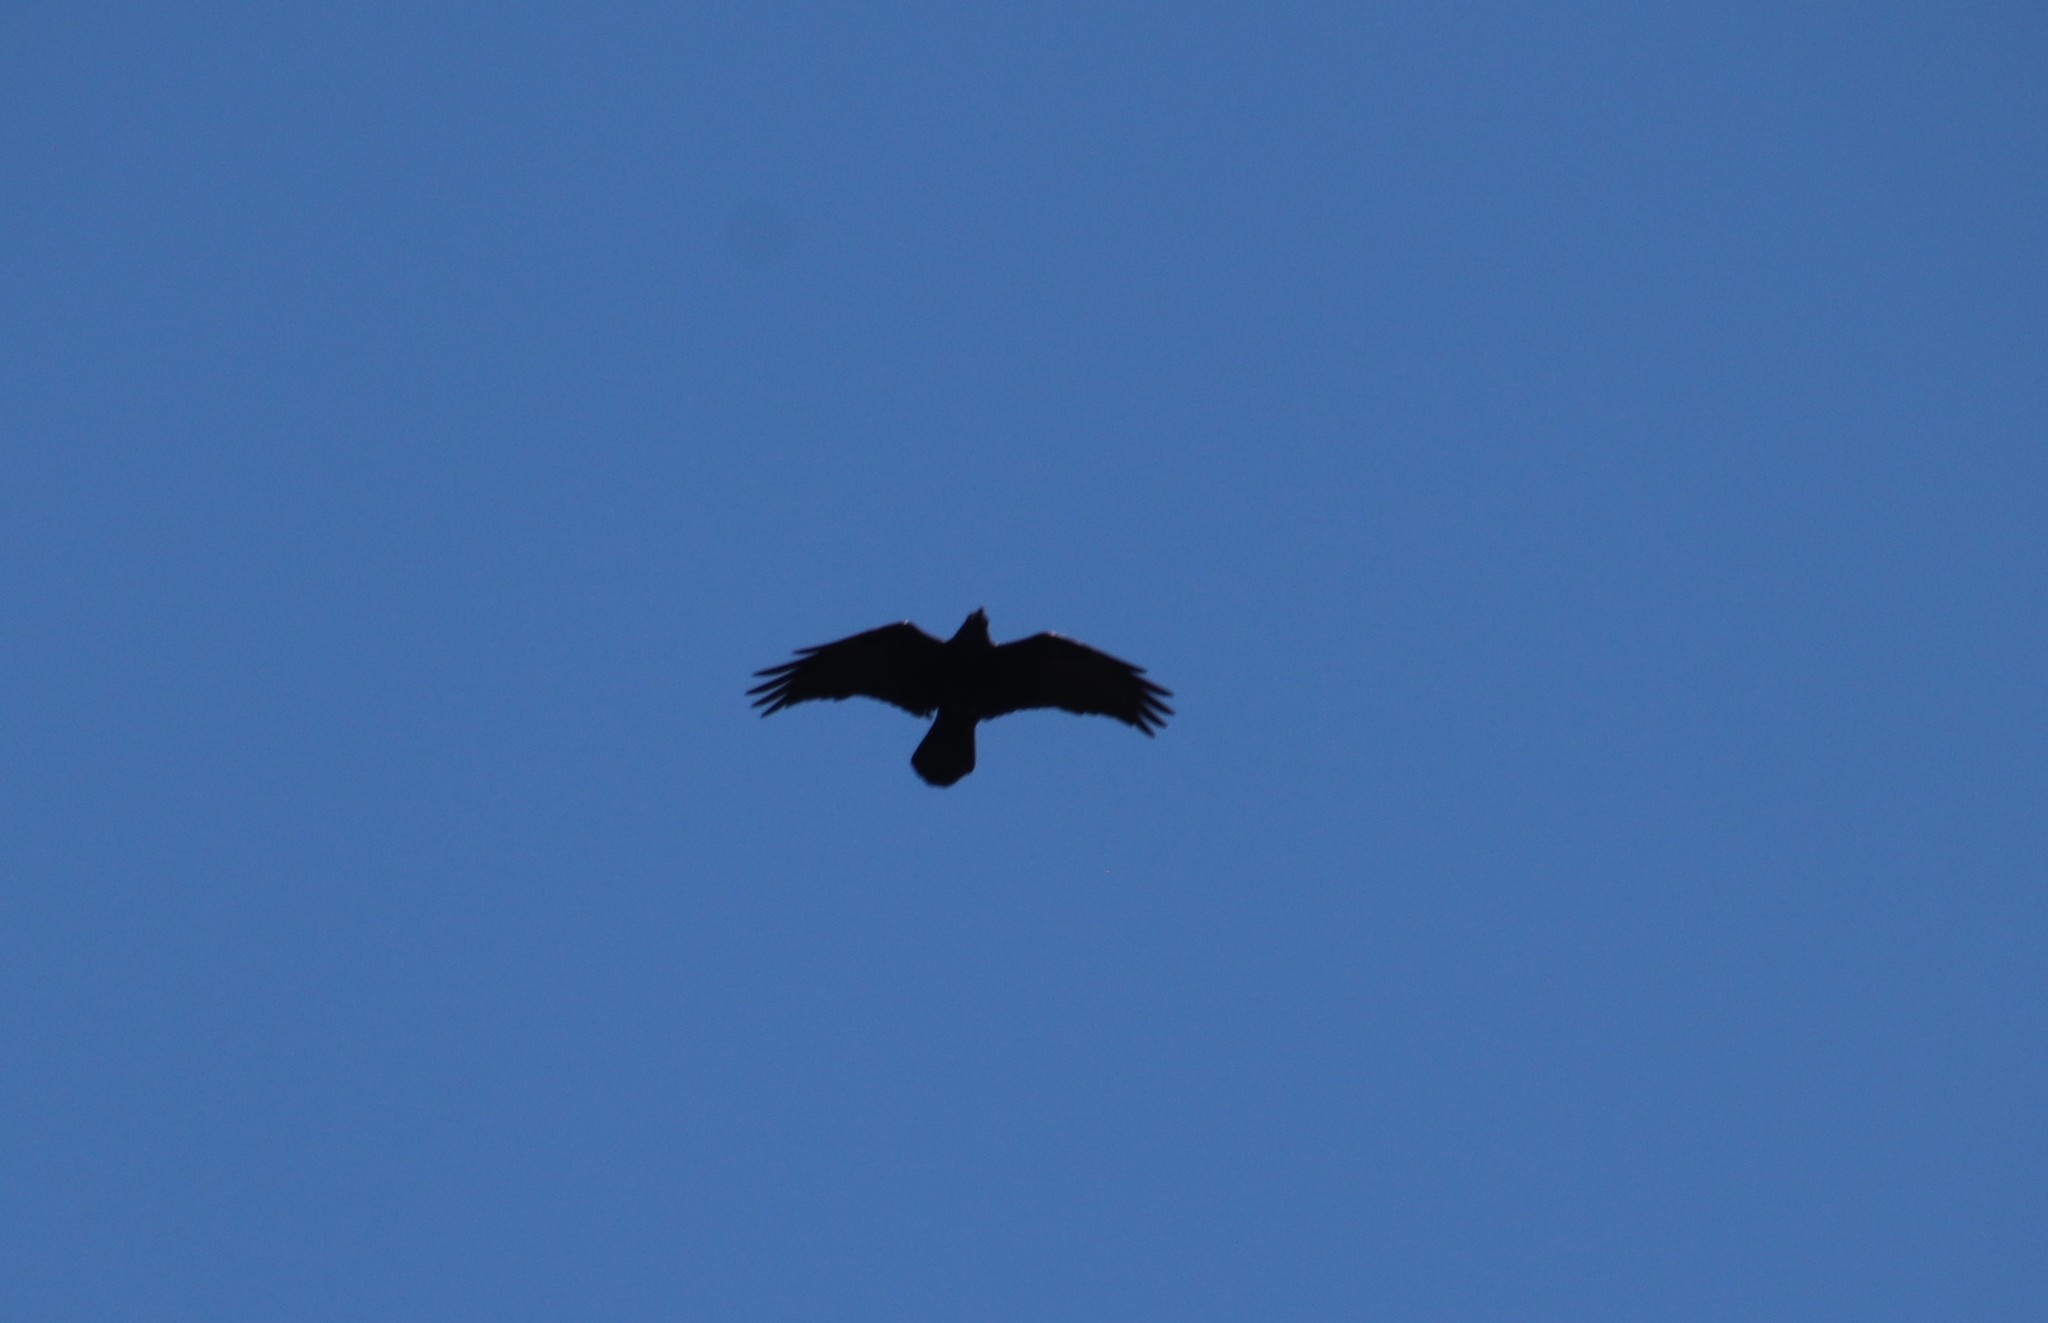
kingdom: Animalia
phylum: Chordata
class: Aves
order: Passeriformes
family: Corvidae
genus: Corvus
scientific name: Corvus corax
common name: Common raven
